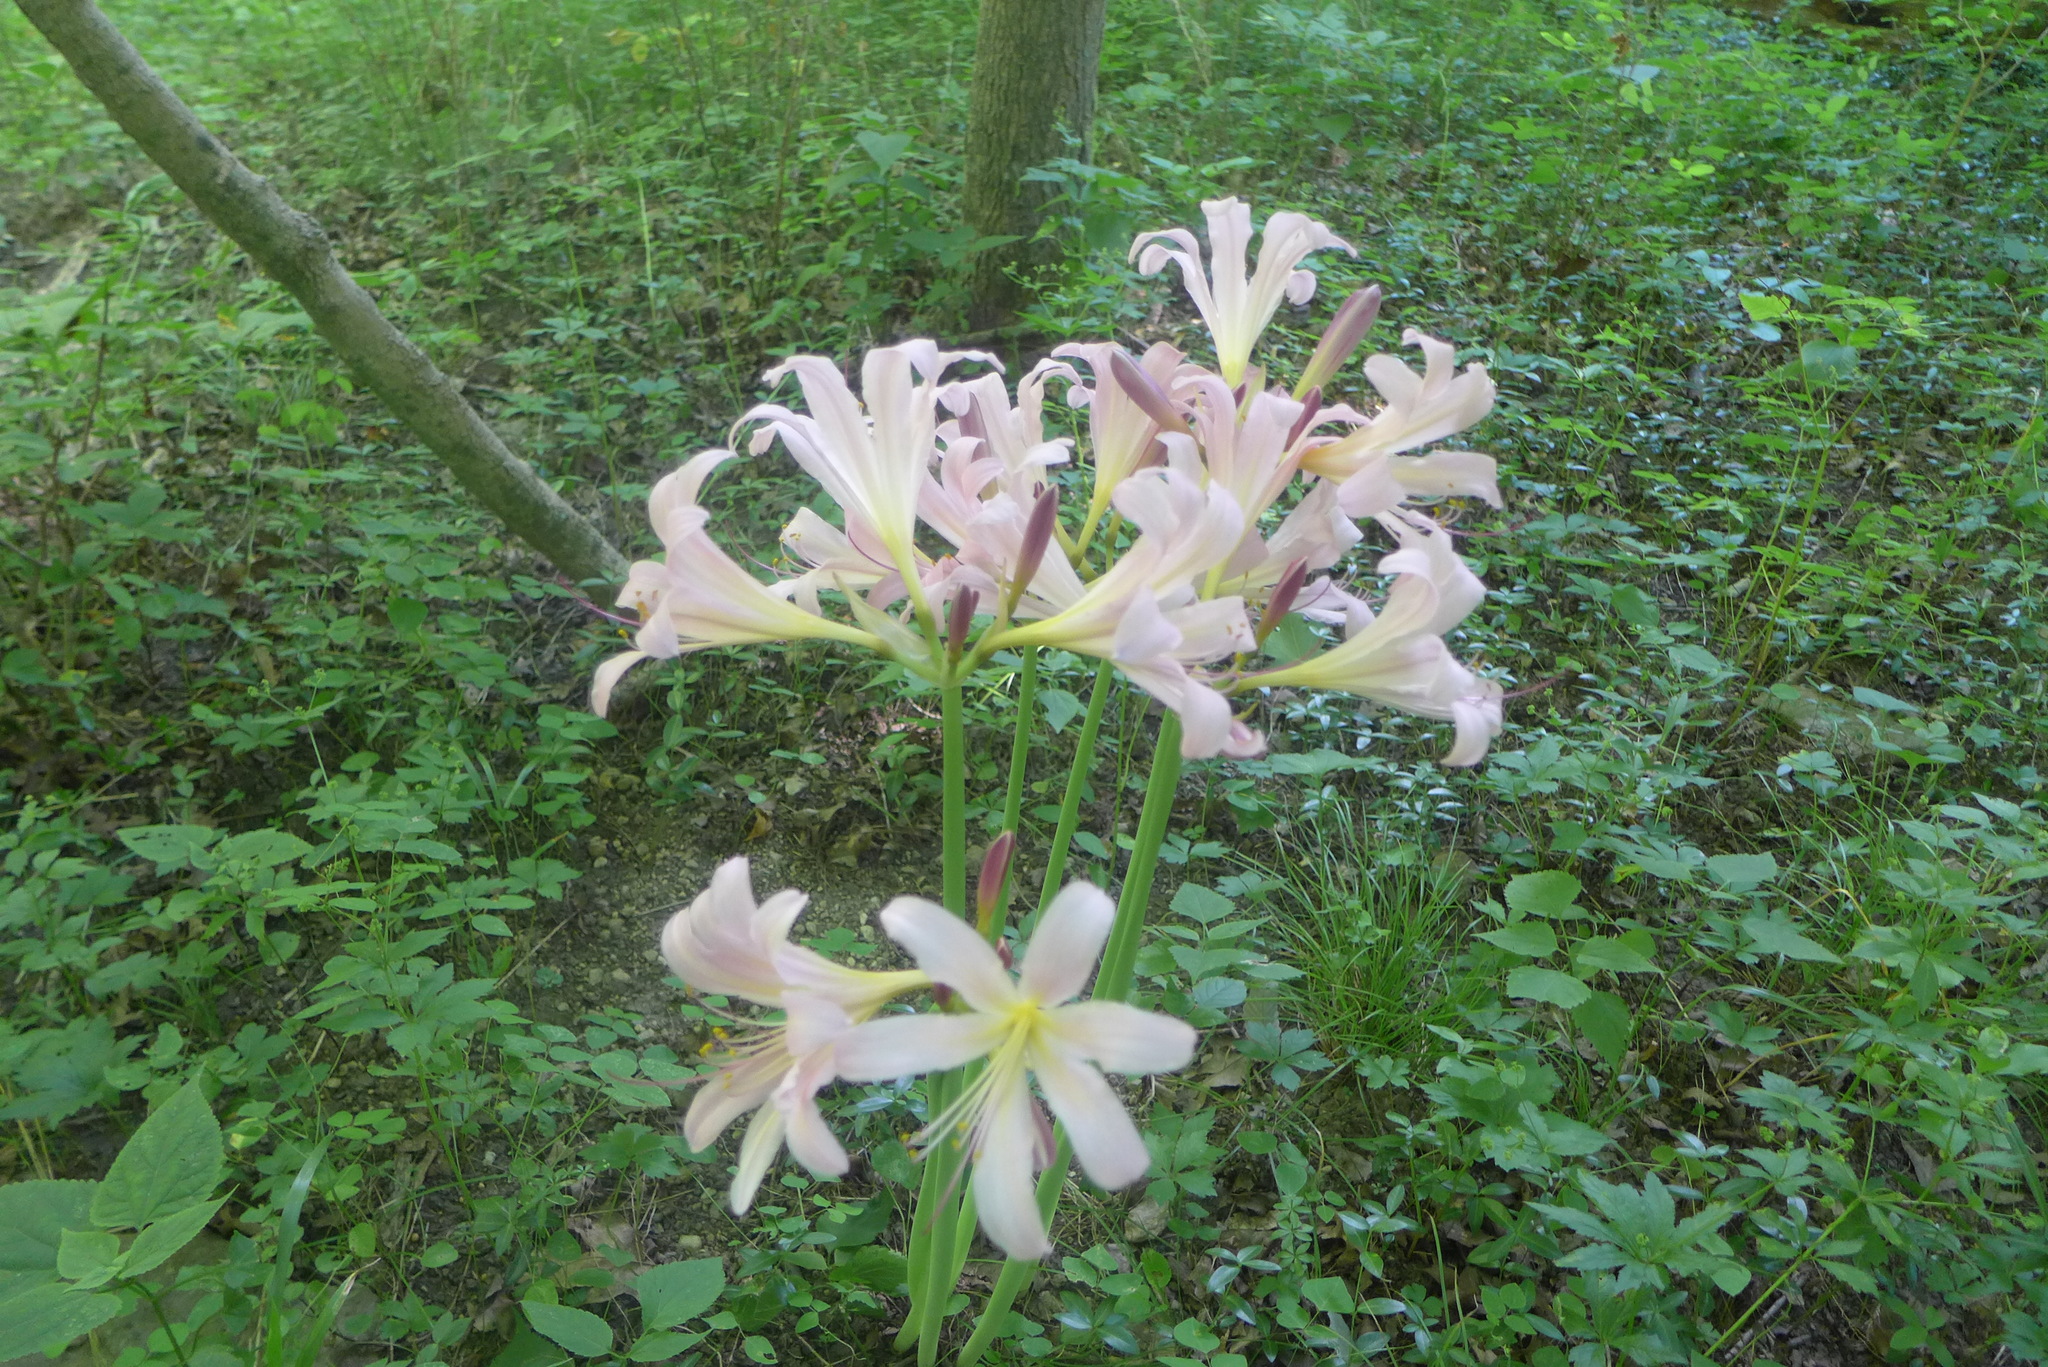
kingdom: Plantae
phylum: Tracheophyta
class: Liliopsida
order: Asparagales
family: Amaryllidaceae
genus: Lycoris
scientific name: Lycoris squamigera
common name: Magic-lily
